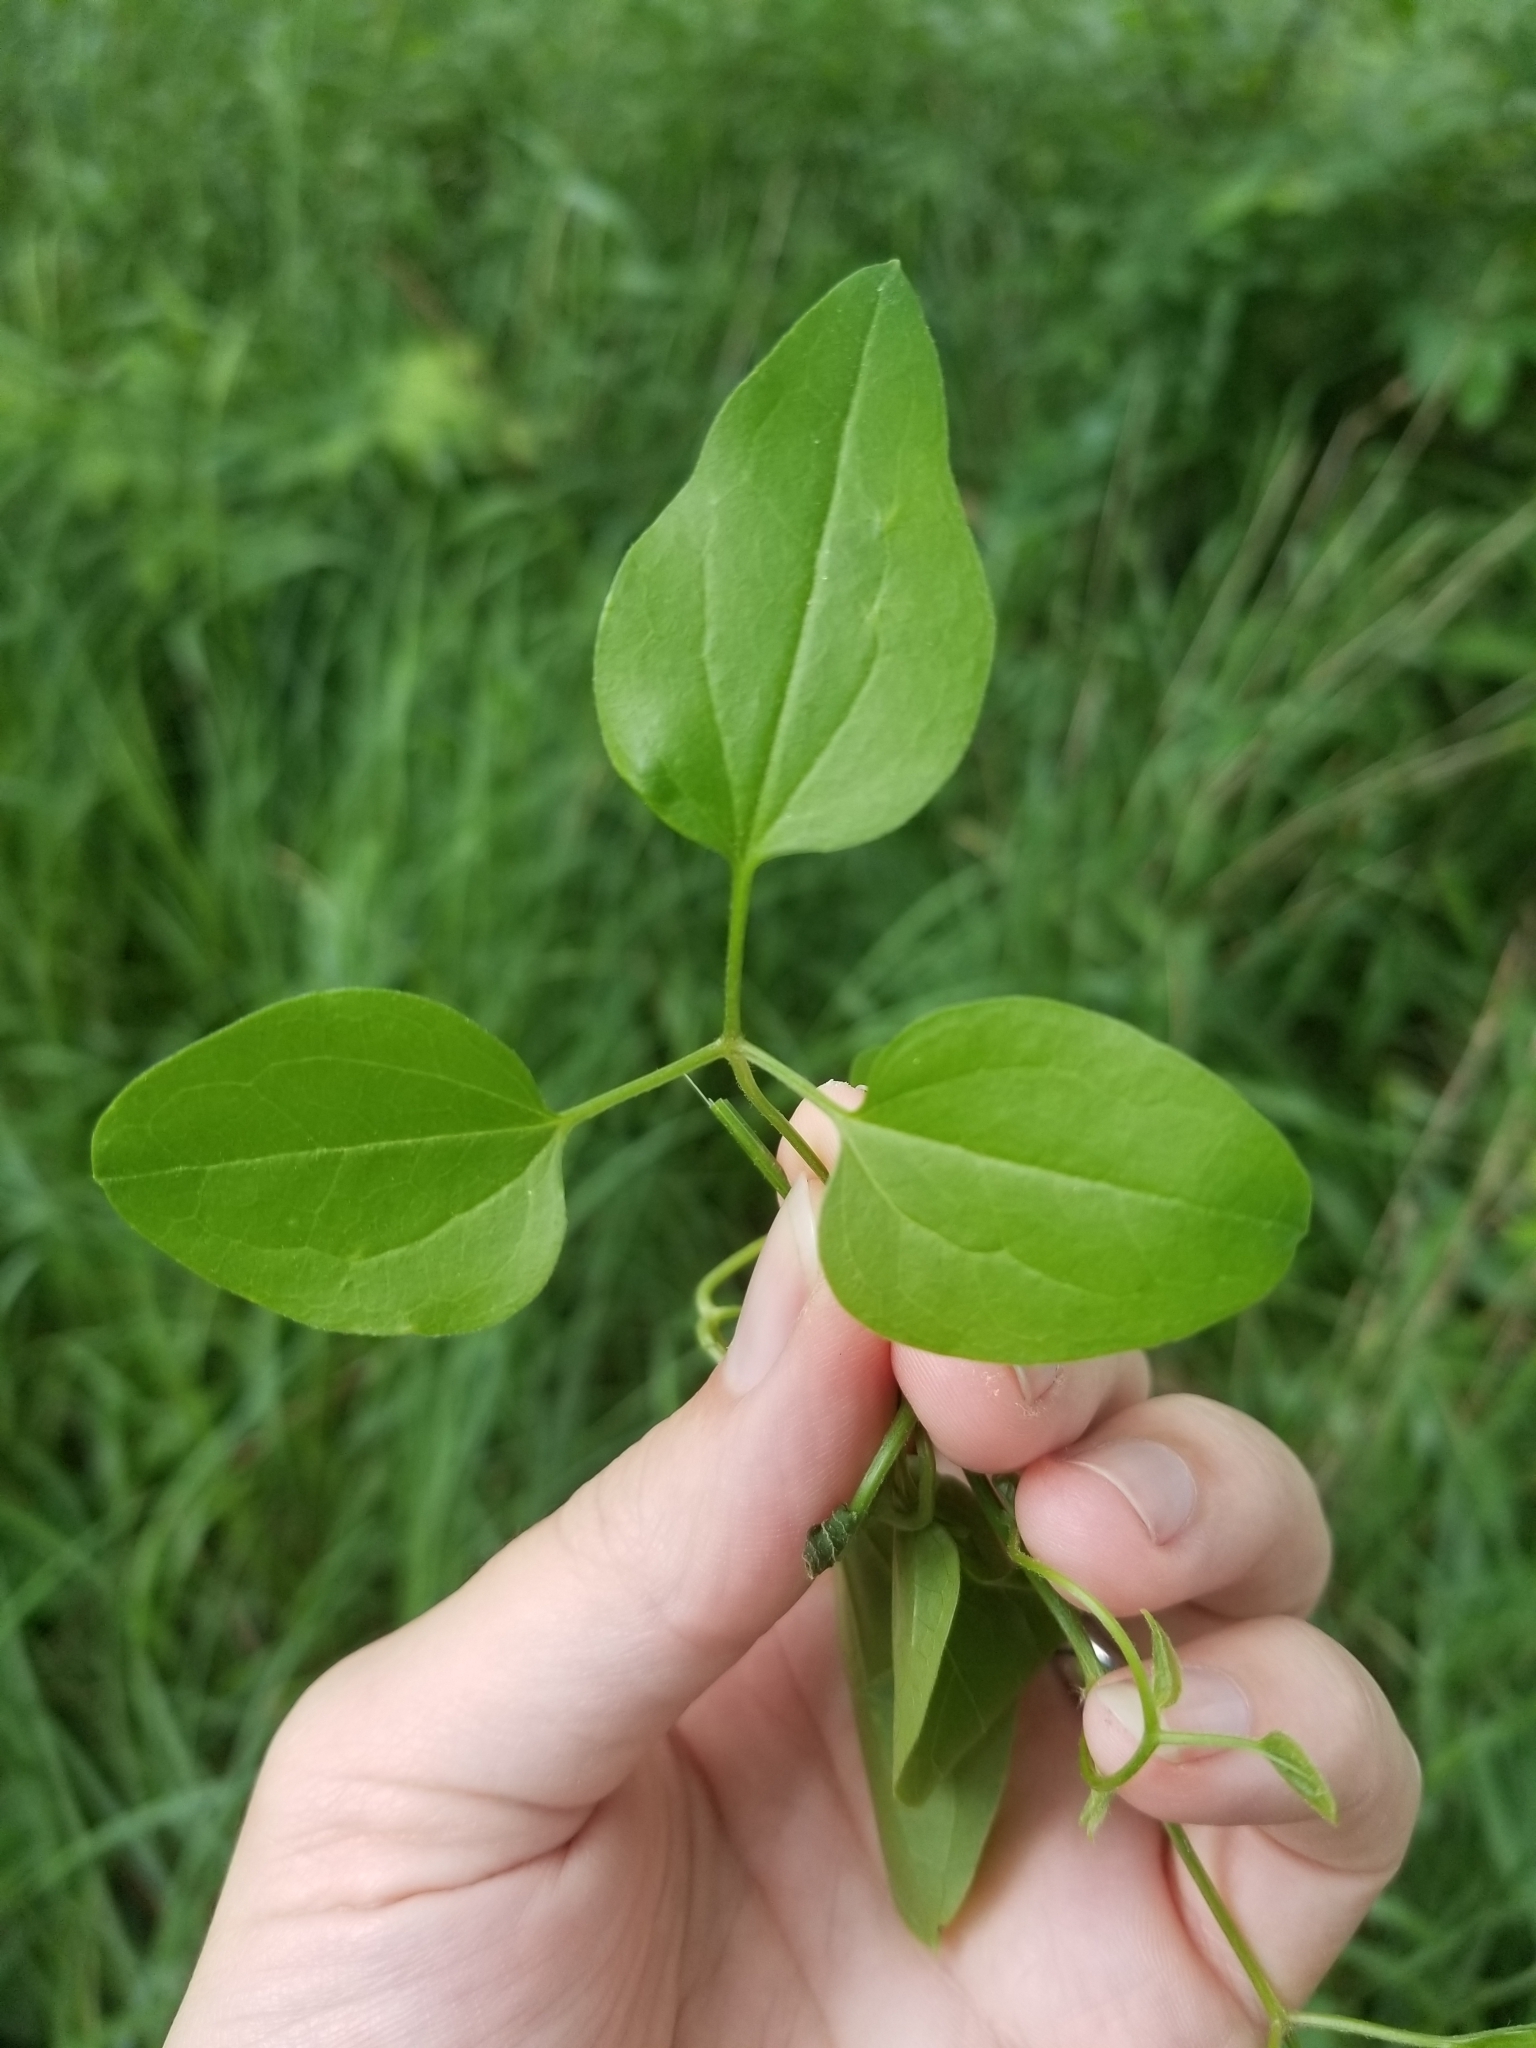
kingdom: Plantae
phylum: Tracheophyta
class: Magnoliopsida
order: Ranunculales
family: Ranunculaceae
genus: Clematis
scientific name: Clematis terniflora
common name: Sweet autumn clematis
